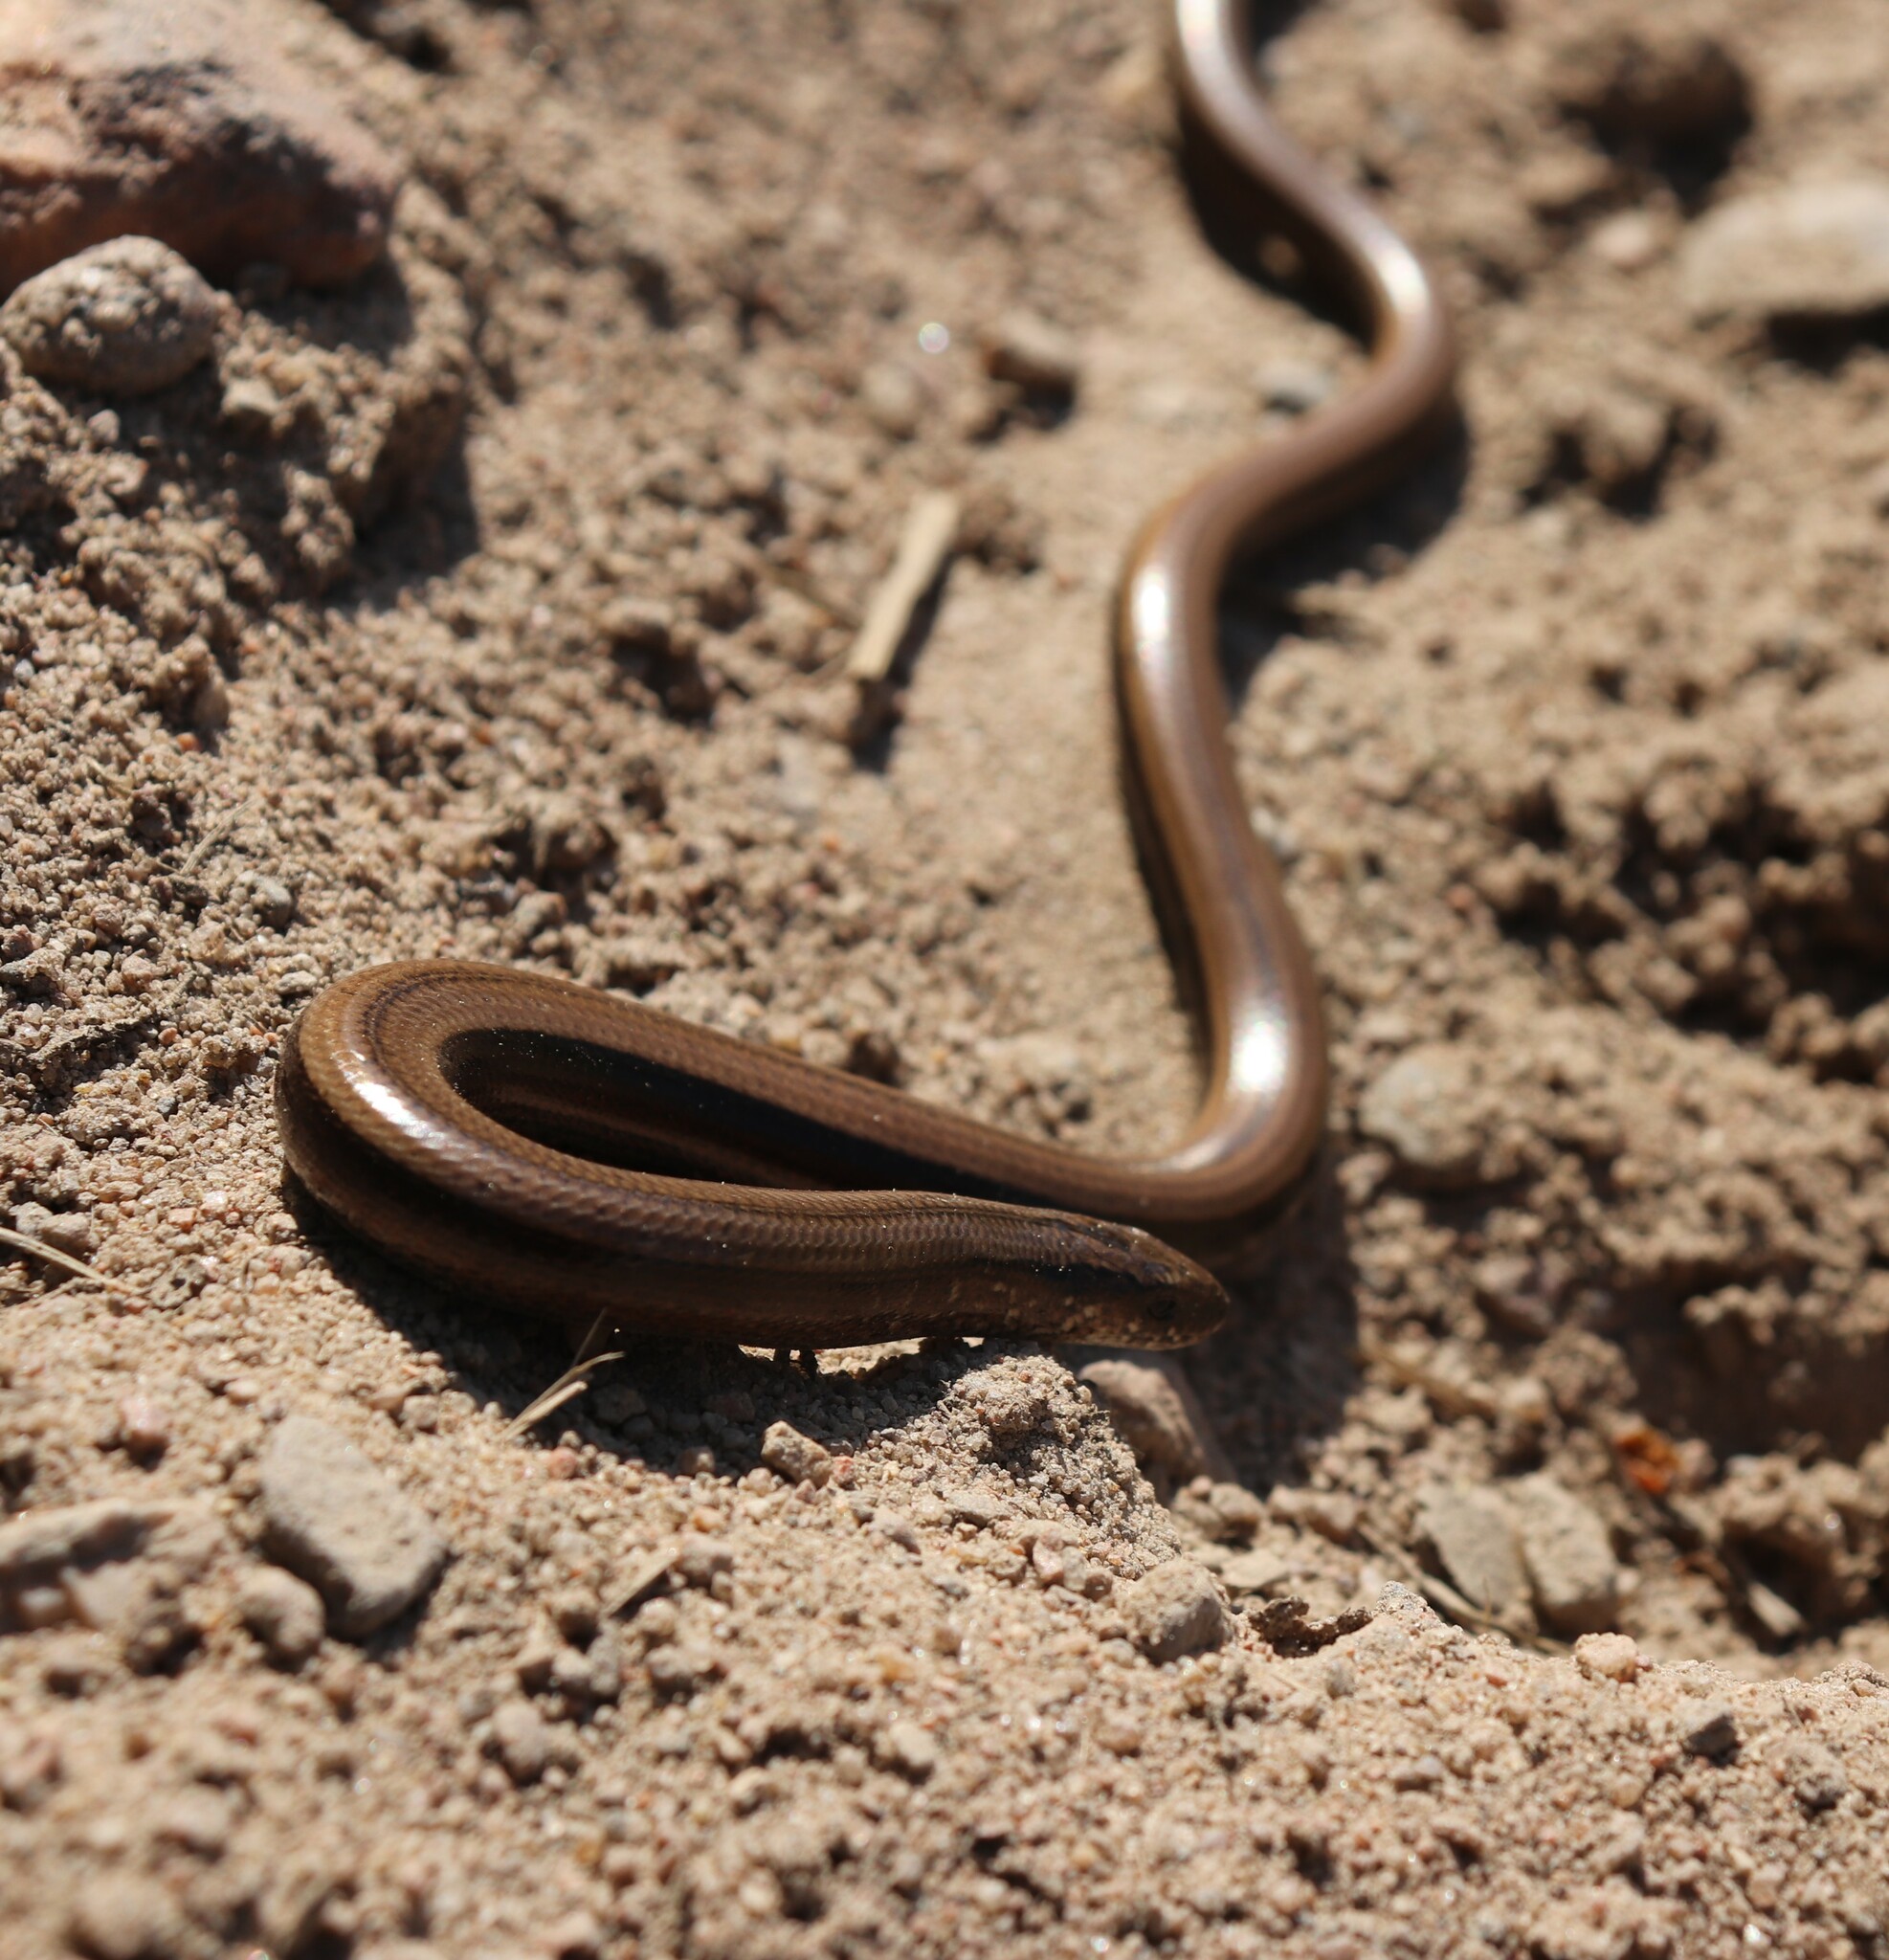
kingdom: Animalia
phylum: Chordata
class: Squamata
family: Anguidae
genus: Anguis
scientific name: Anguis colchica
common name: Slow worm
